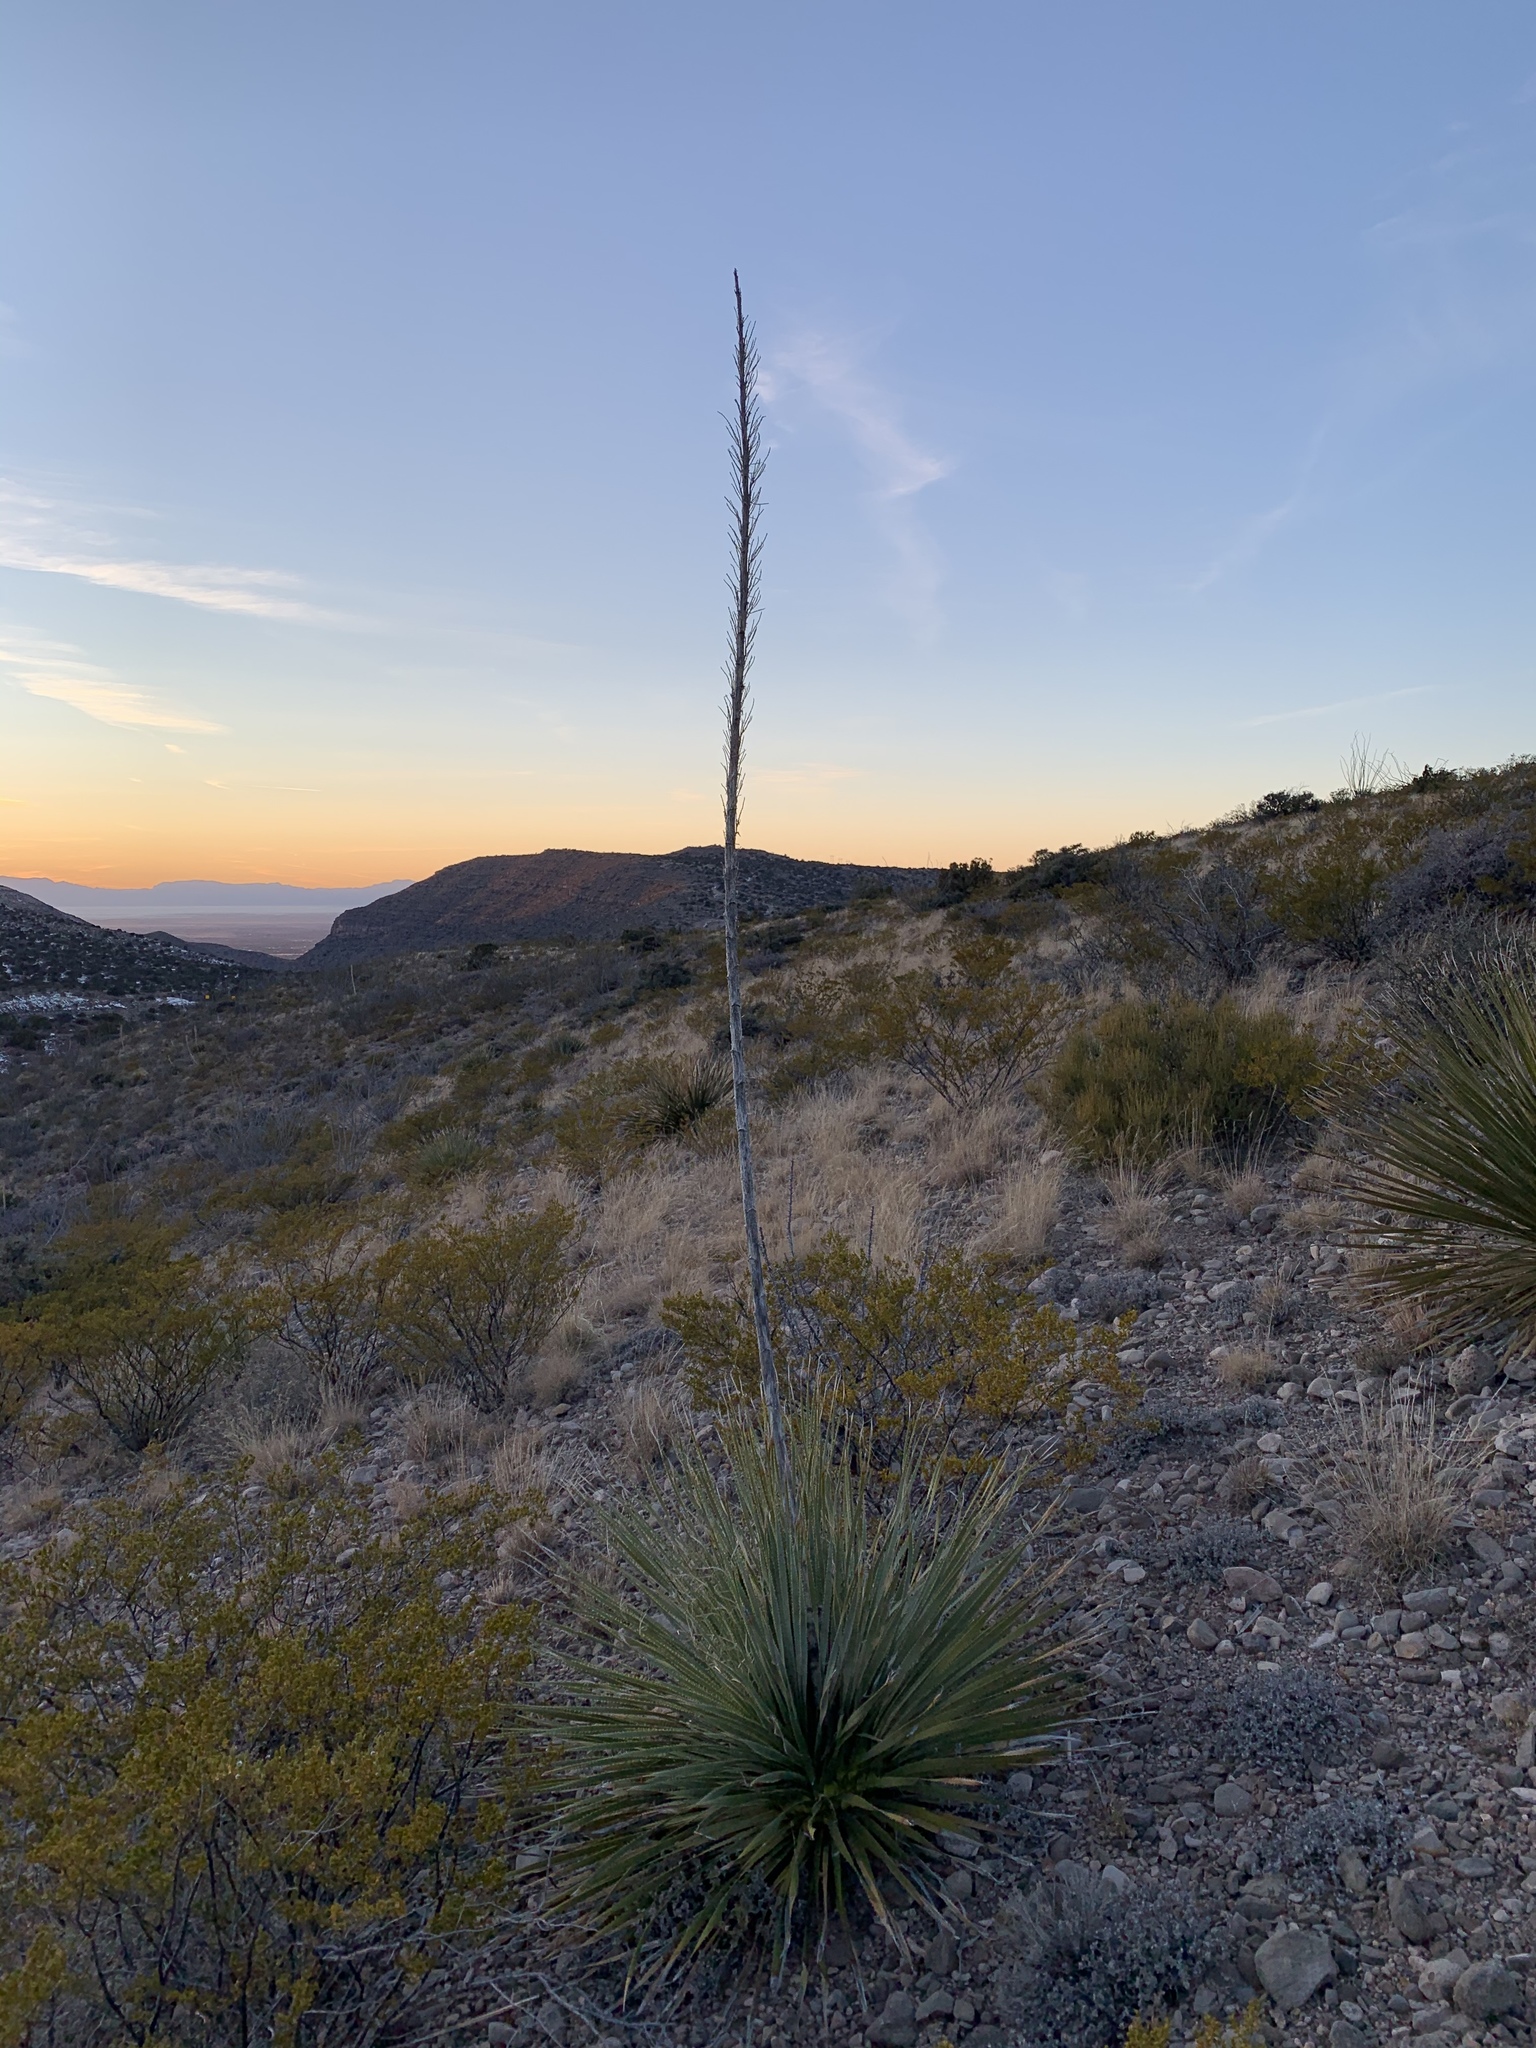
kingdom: Plantae
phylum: Tracheophyta
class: Liliopsida
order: Asparagales
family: Asparagaceae
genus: Dasylirion
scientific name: Dasylirion wheeleri
